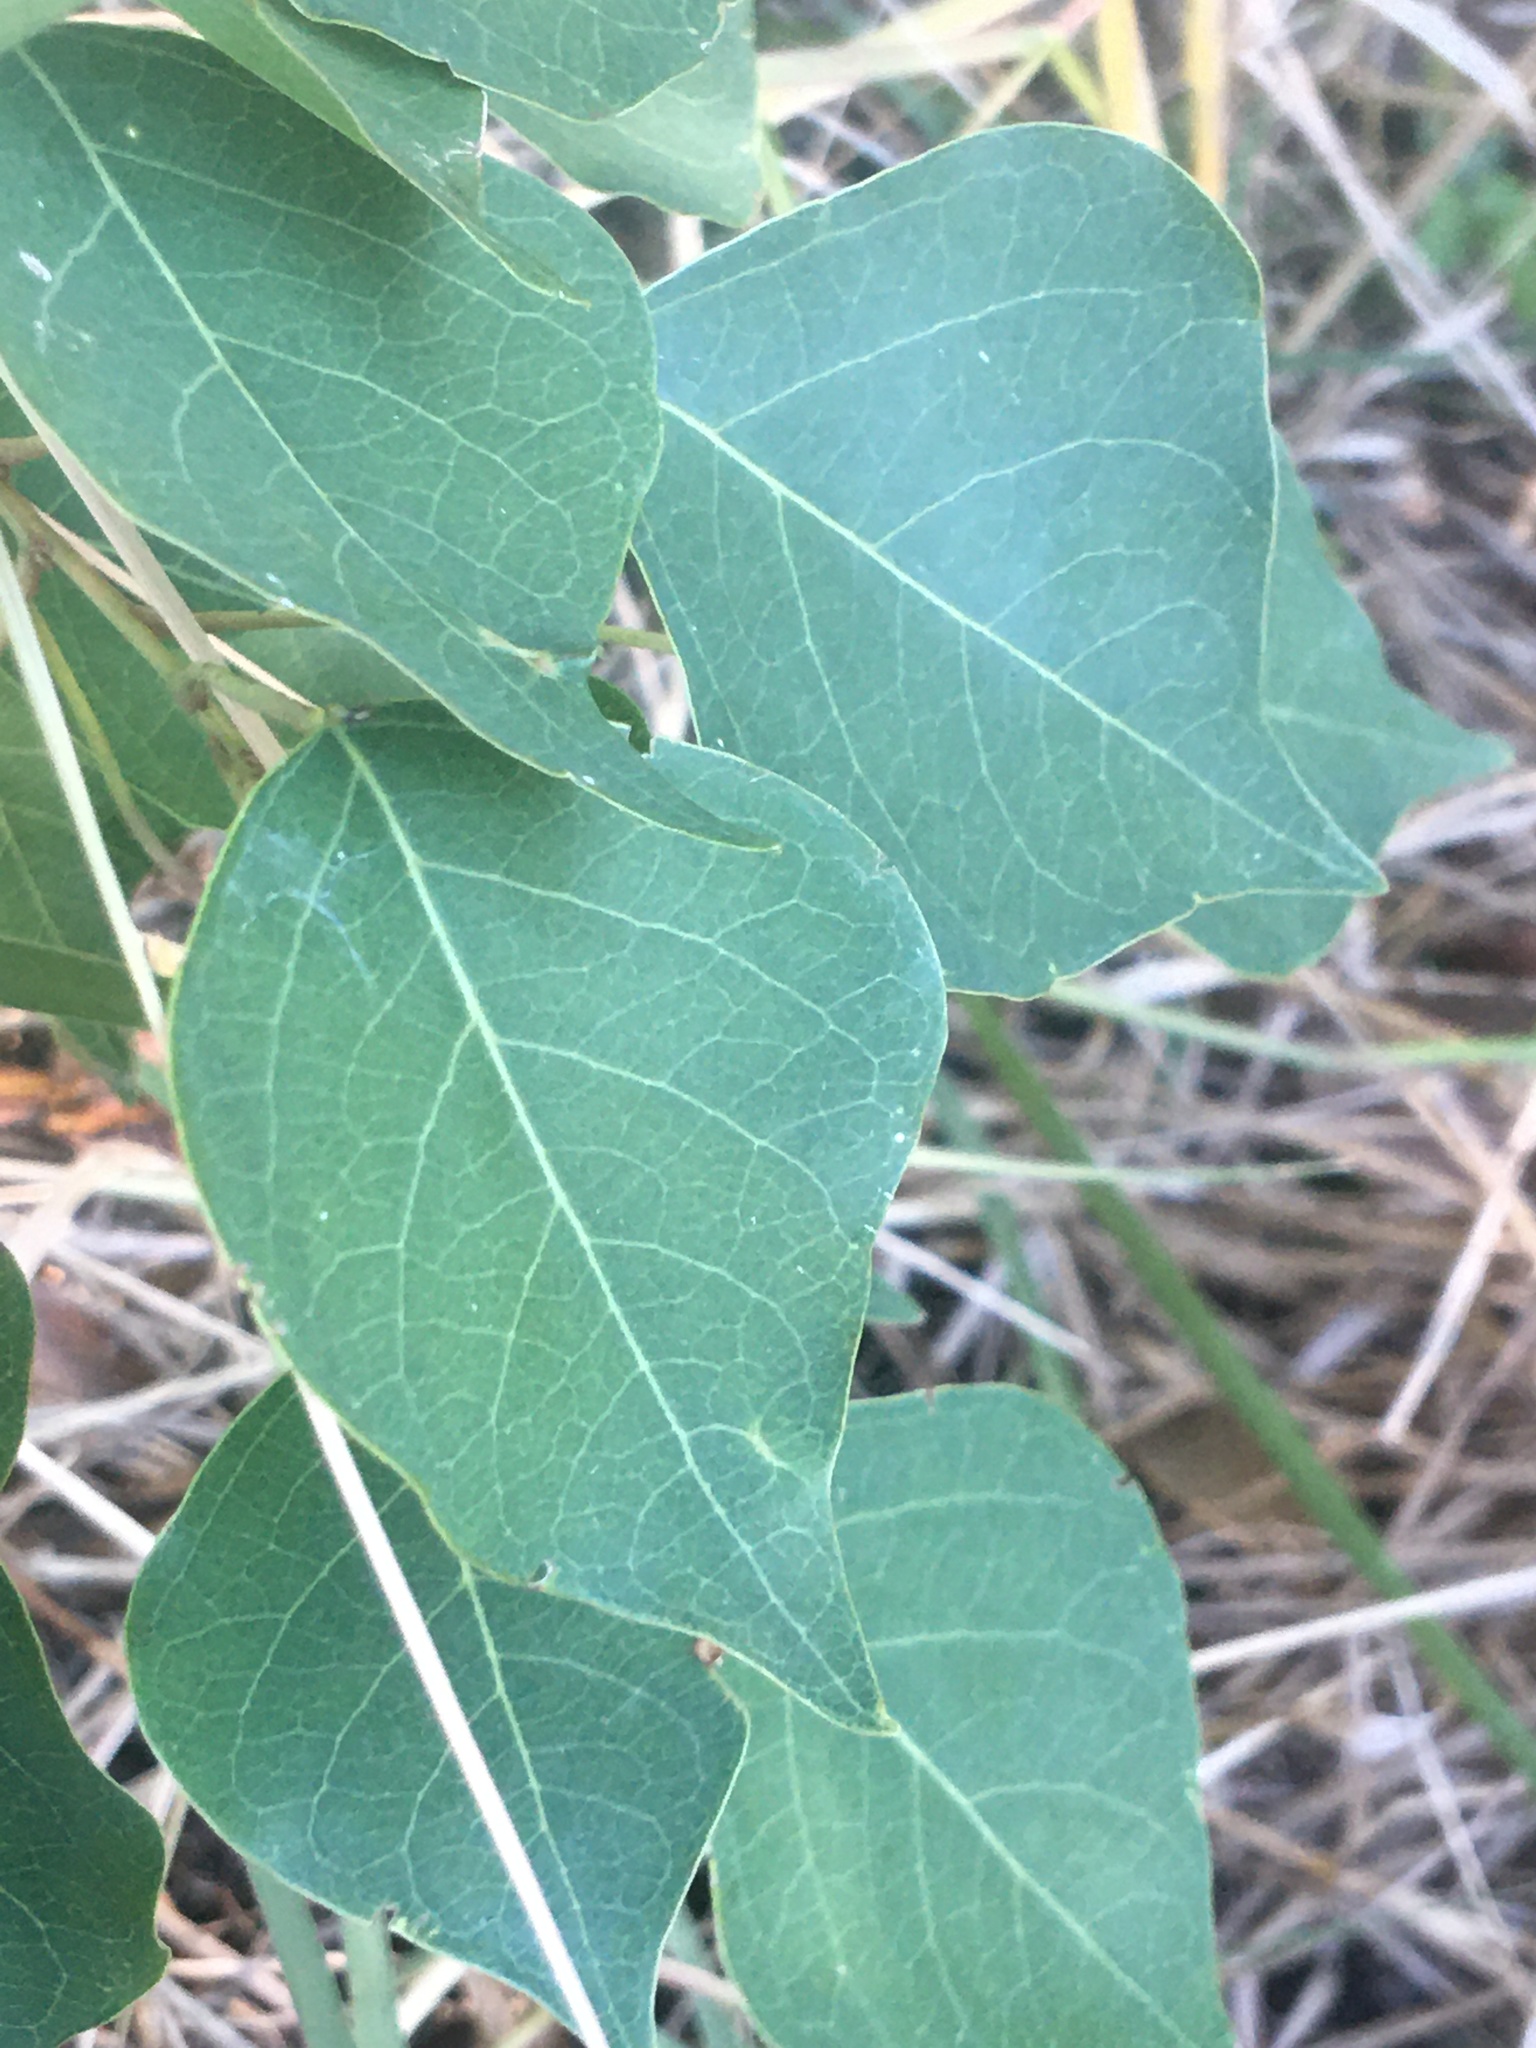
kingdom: Plantae
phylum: Tracheophyta
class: Magnoliopsida
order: Malpighiales
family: Euphorbiaceae
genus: Triadica
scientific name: Triadica sebifera
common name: Chinese tallow
